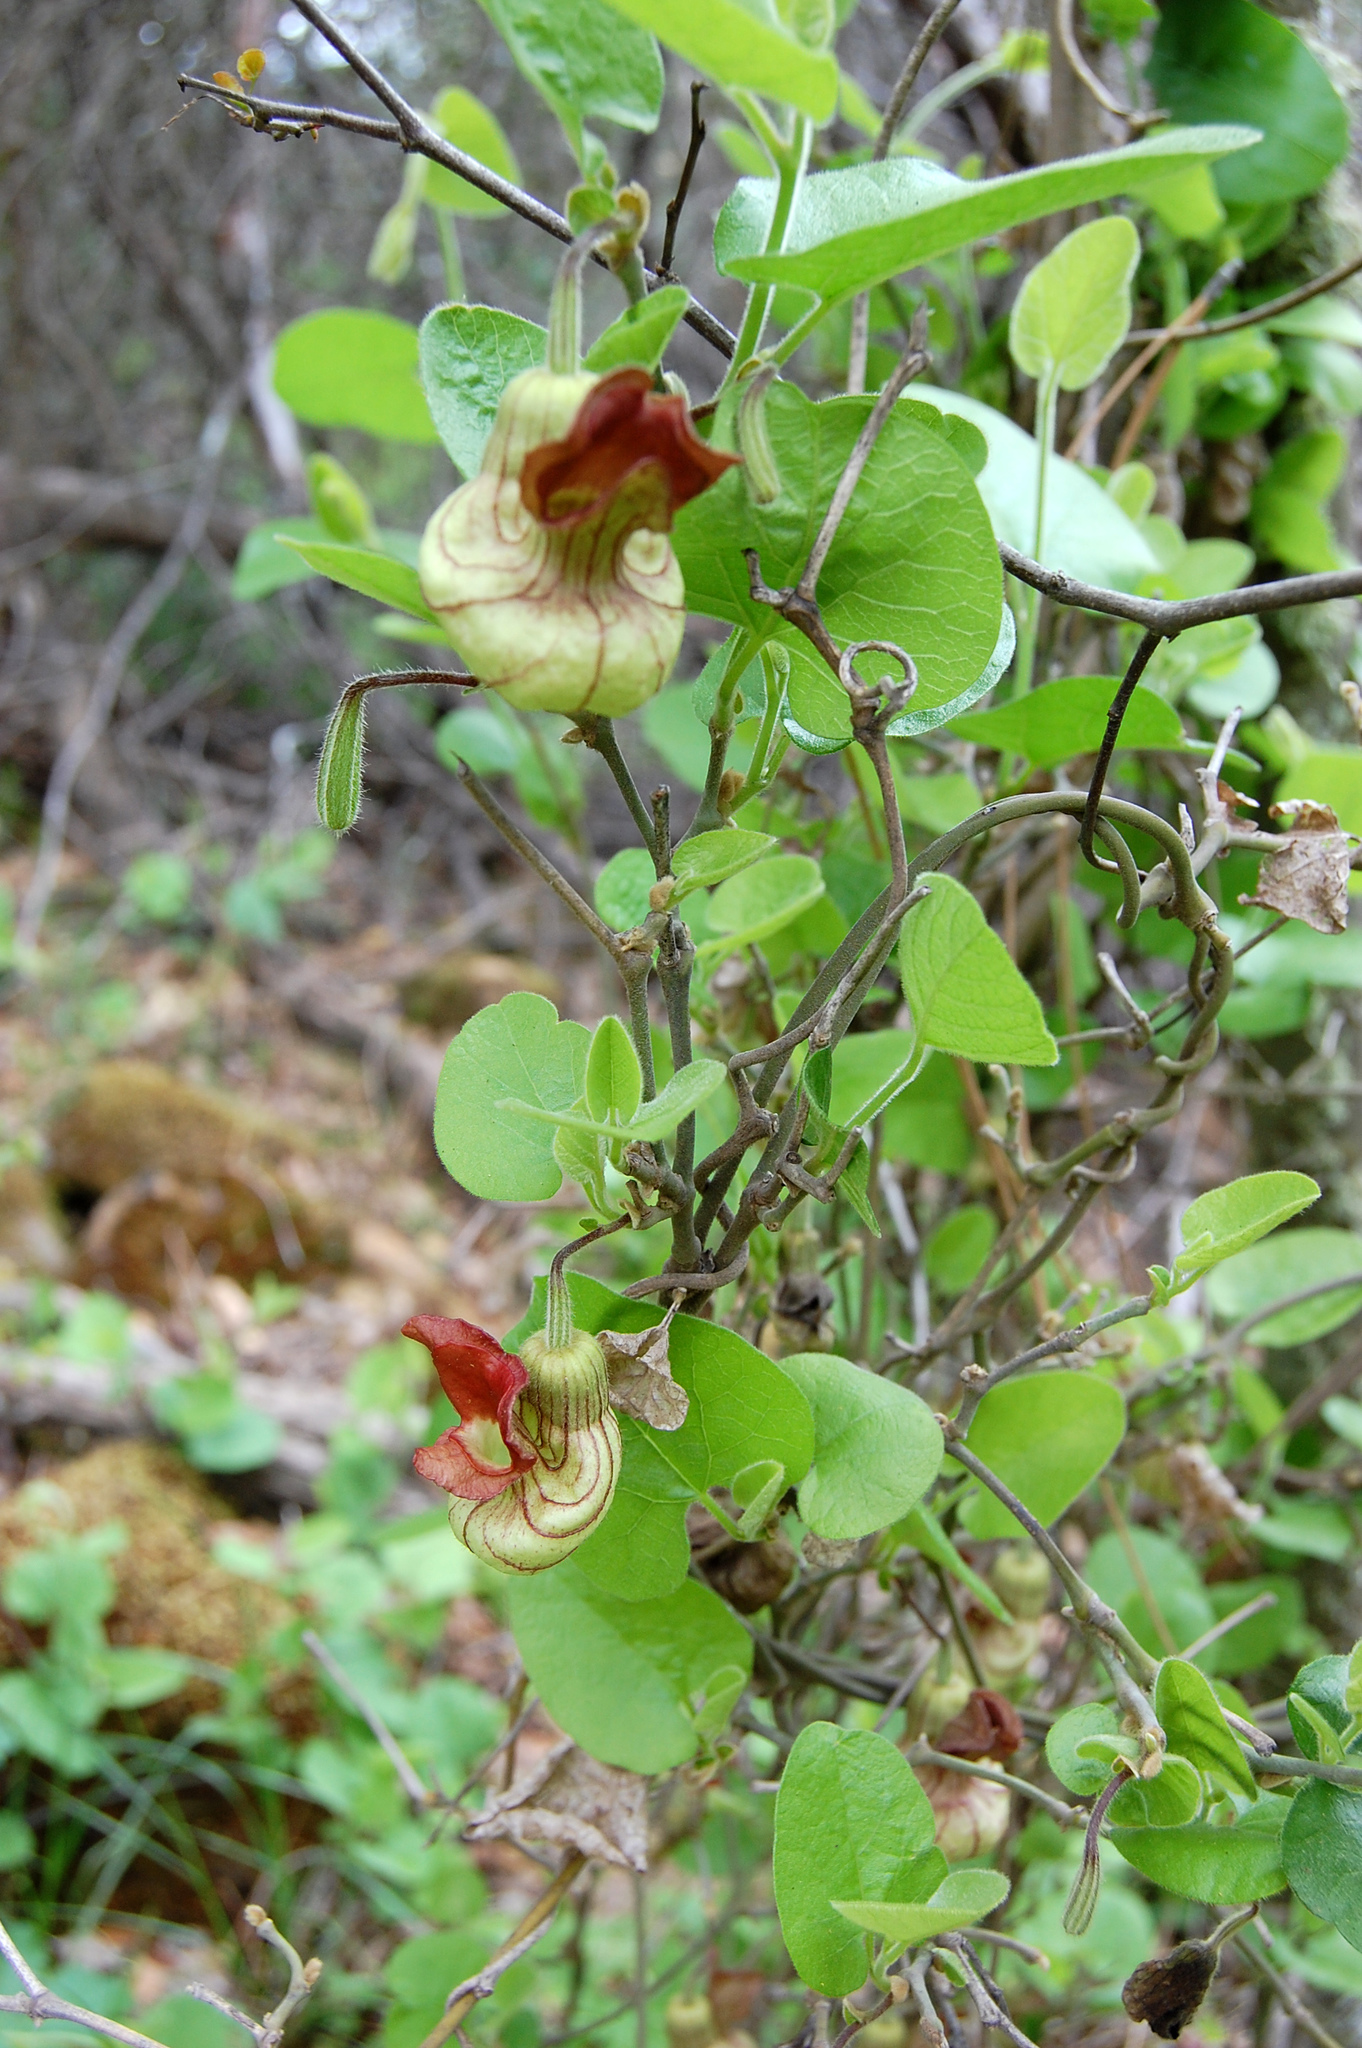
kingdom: Plantae
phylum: Tracheophyta
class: Magnoliopsida
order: Piperales
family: Aristolochiaceae
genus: Isotrema
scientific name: Isotrema californicum
